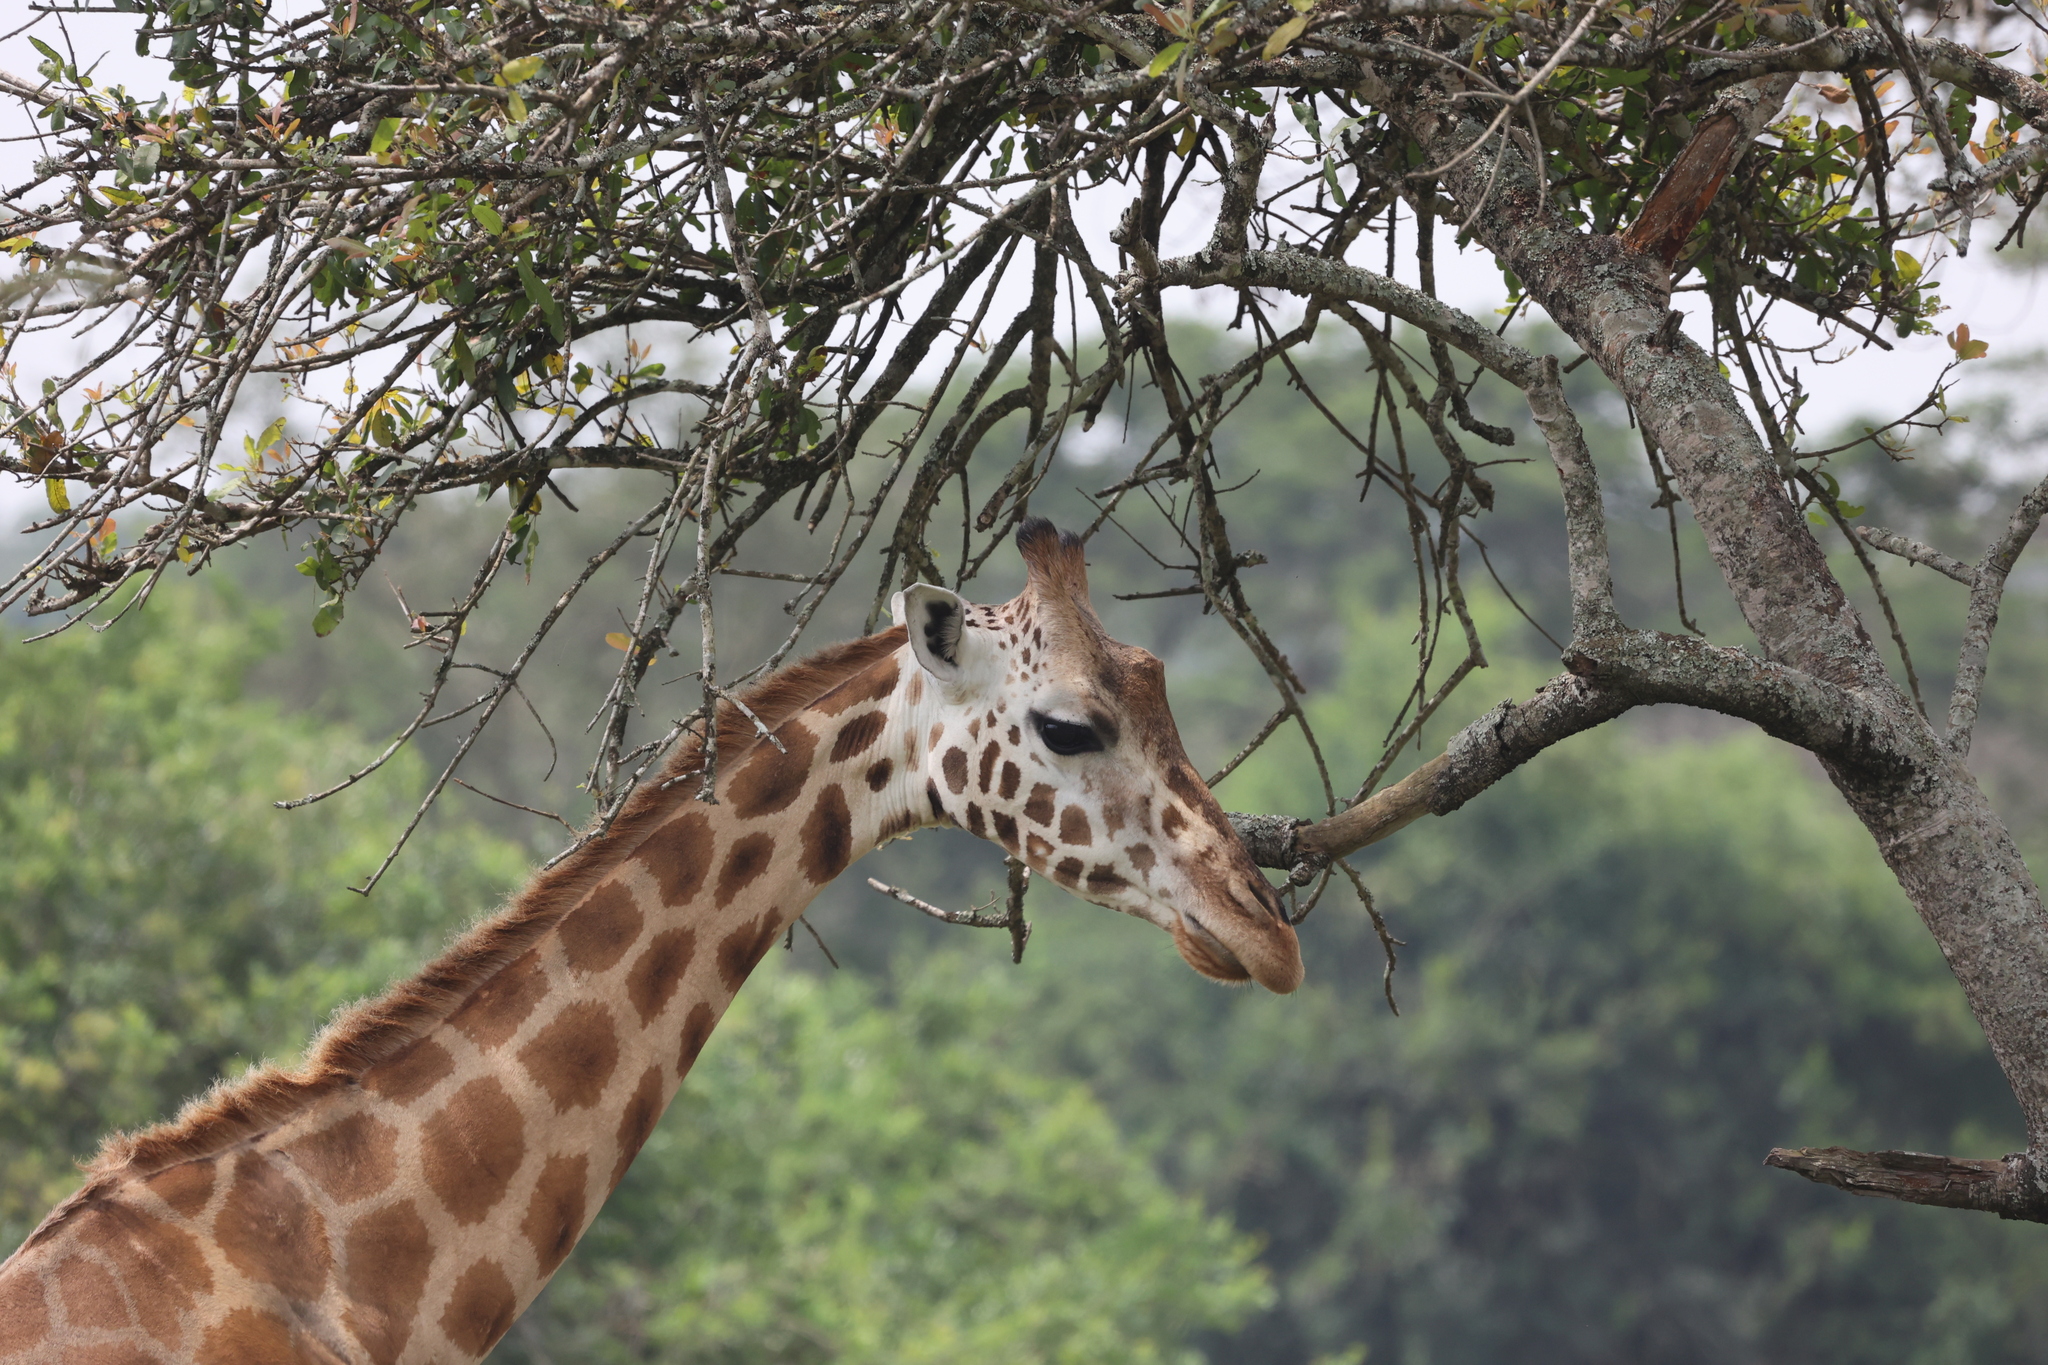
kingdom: Animalia
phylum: Chordata
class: Mammalia
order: Artiodactyla
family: Giraffidae
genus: Giraffa
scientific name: Giraffa camelopardalis
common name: Giraffe
